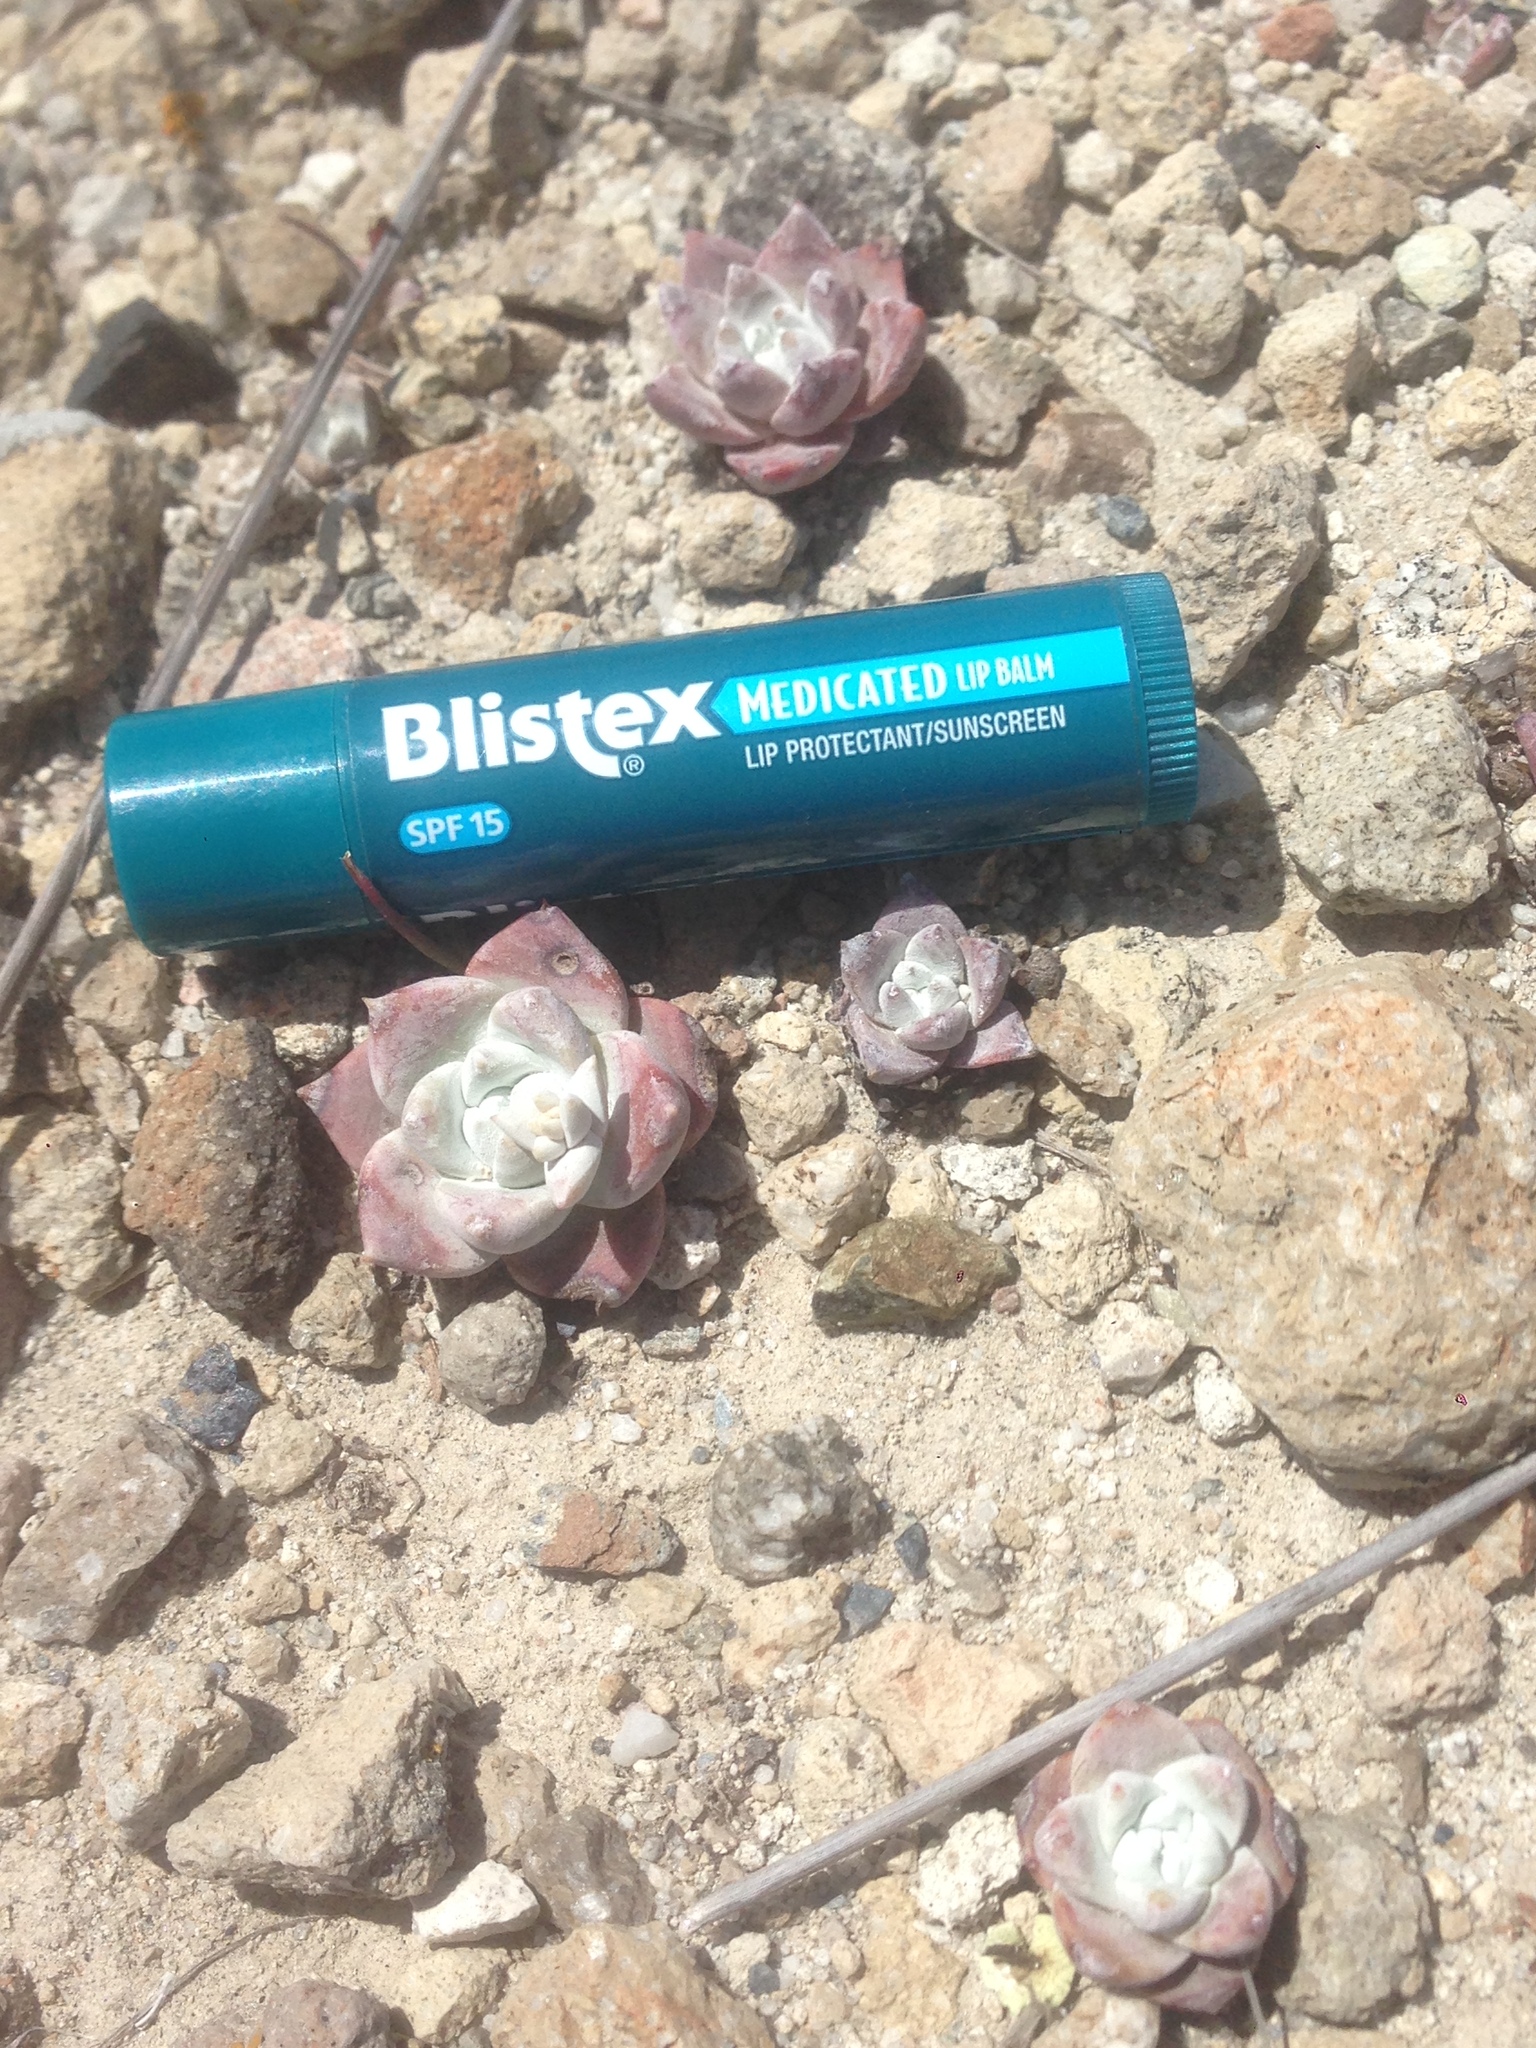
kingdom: Plantae
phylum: Tracheophyta
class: Magnoliopsida
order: Saxifragales
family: Crassulaceae
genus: Dudleya
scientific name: Dudleya gnoma
